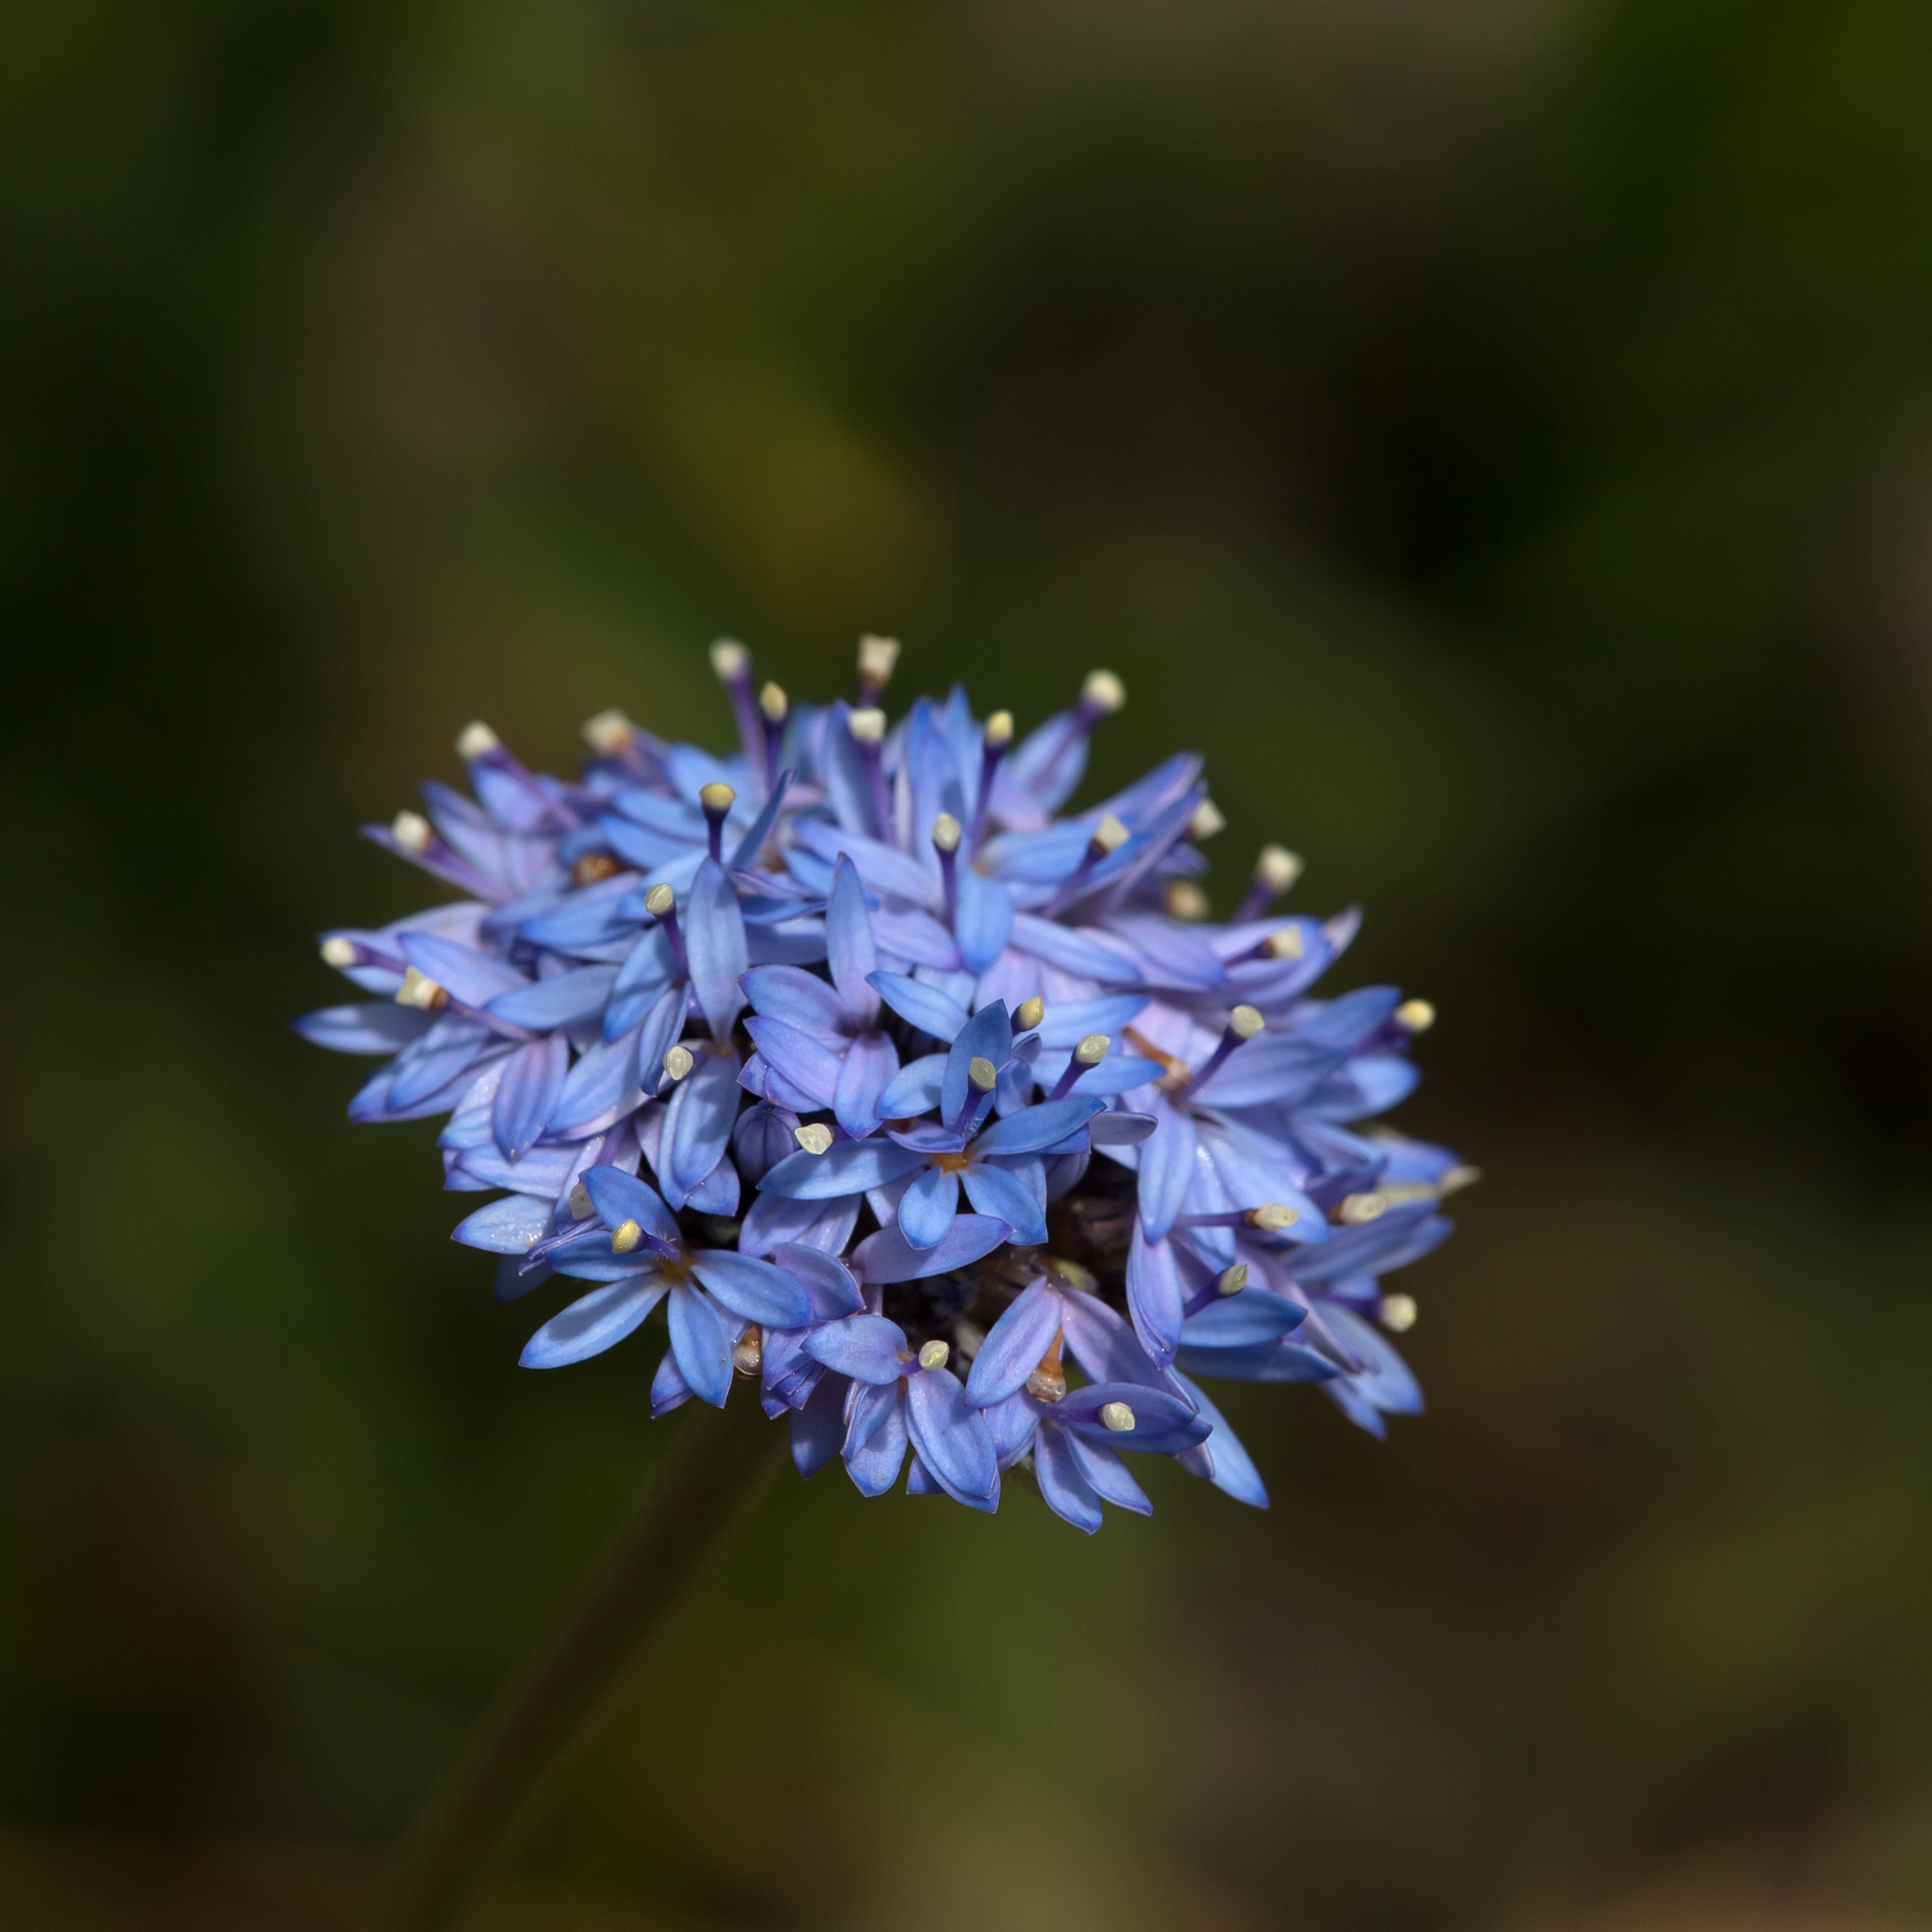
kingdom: Plantae
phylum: Tracheophyta
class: Magnoliopsida
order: Asterales
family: Goodeniaceae
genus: Brunonia
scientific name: Brunonia australis
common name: Blue pincushion
